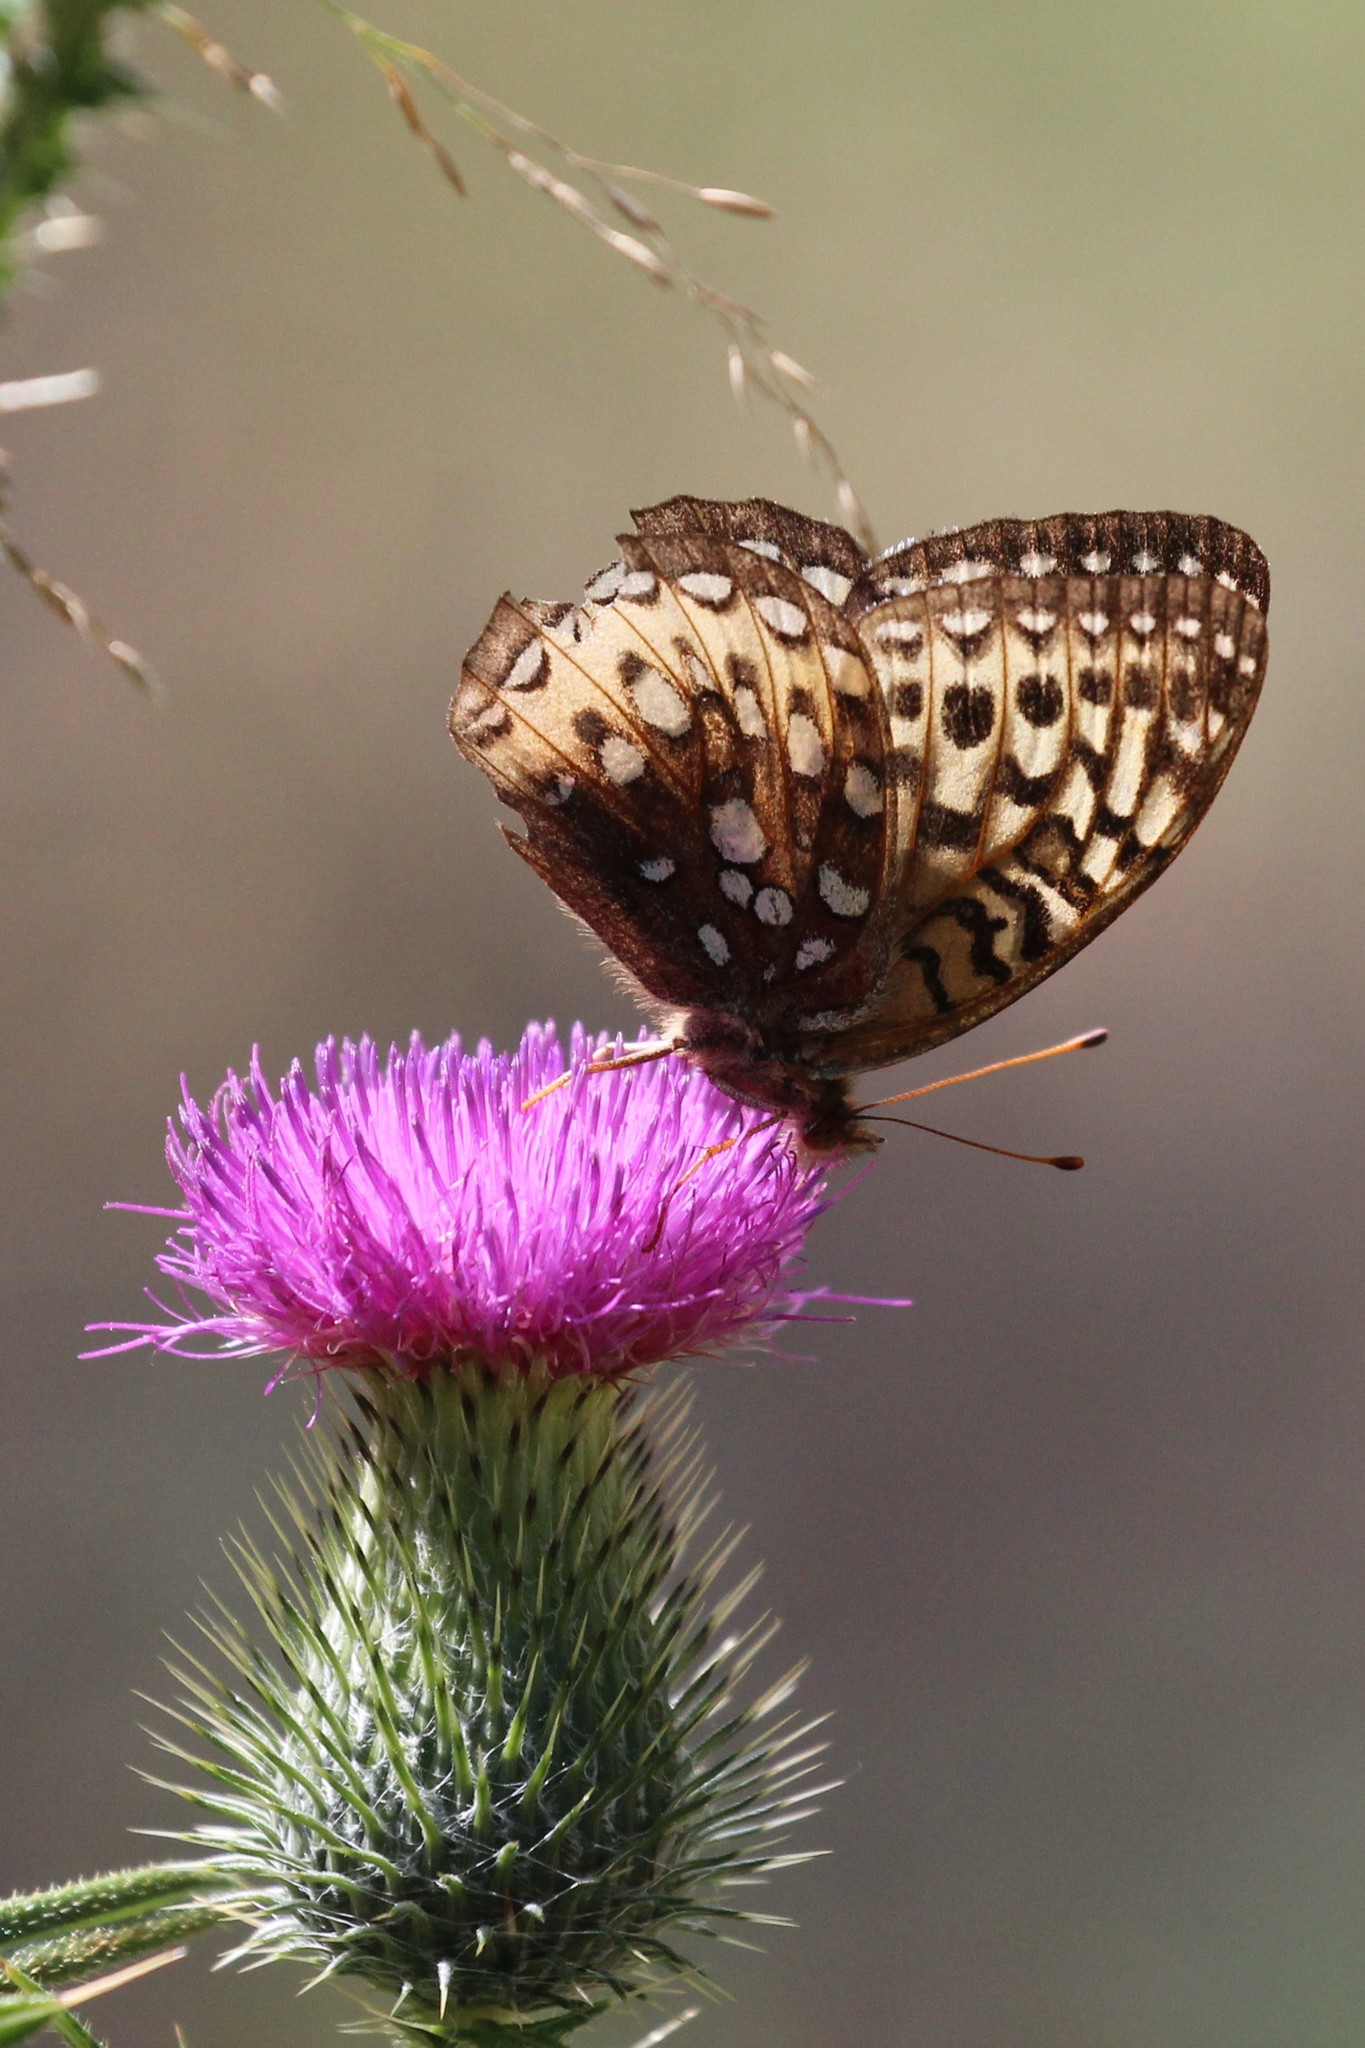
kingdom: Animalia
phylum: Arthropoda
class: Insecta
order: Lepidoptera
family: Nymphalidae
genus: Speyeria
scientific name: Speyeria cybele
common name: Great spangled fritillary
